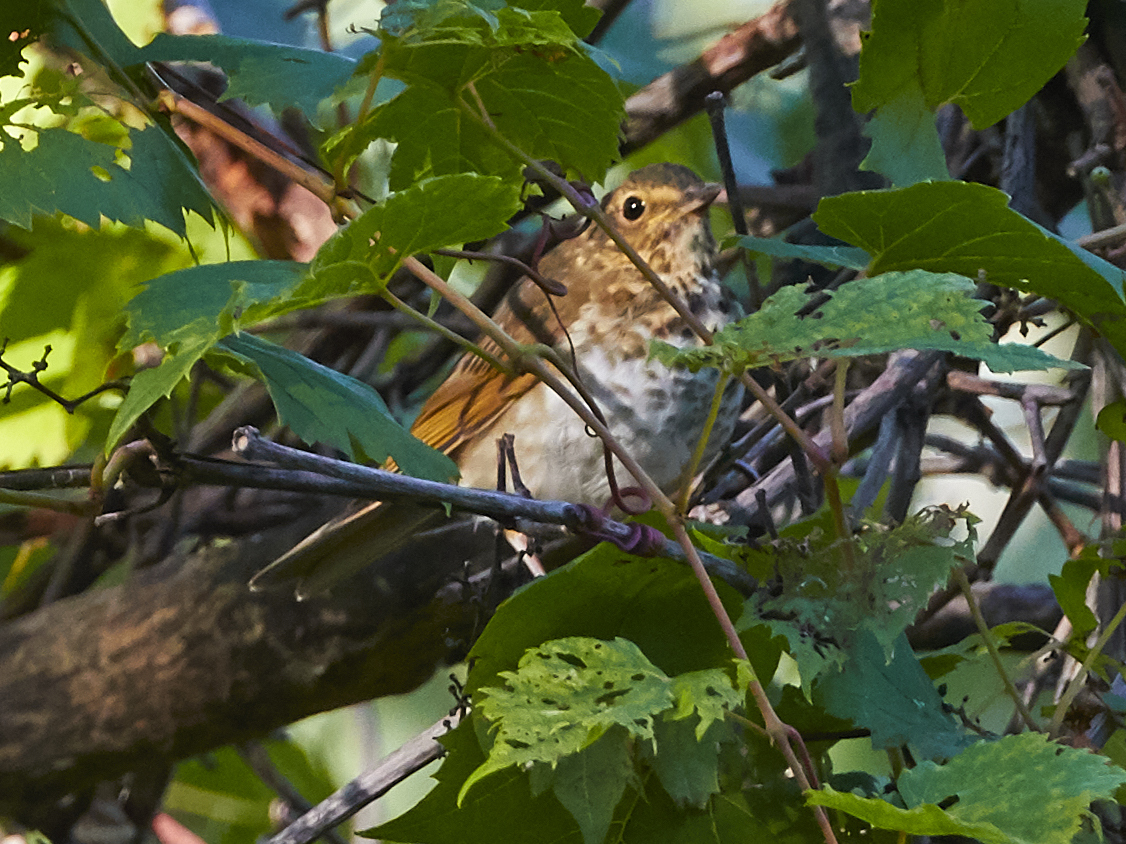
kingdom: Animalia
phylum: Chordata
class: Aves
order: Passeriformes
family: Turdidae
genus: Catharus
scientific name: Catharus guttatus
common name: Hermit thrush
